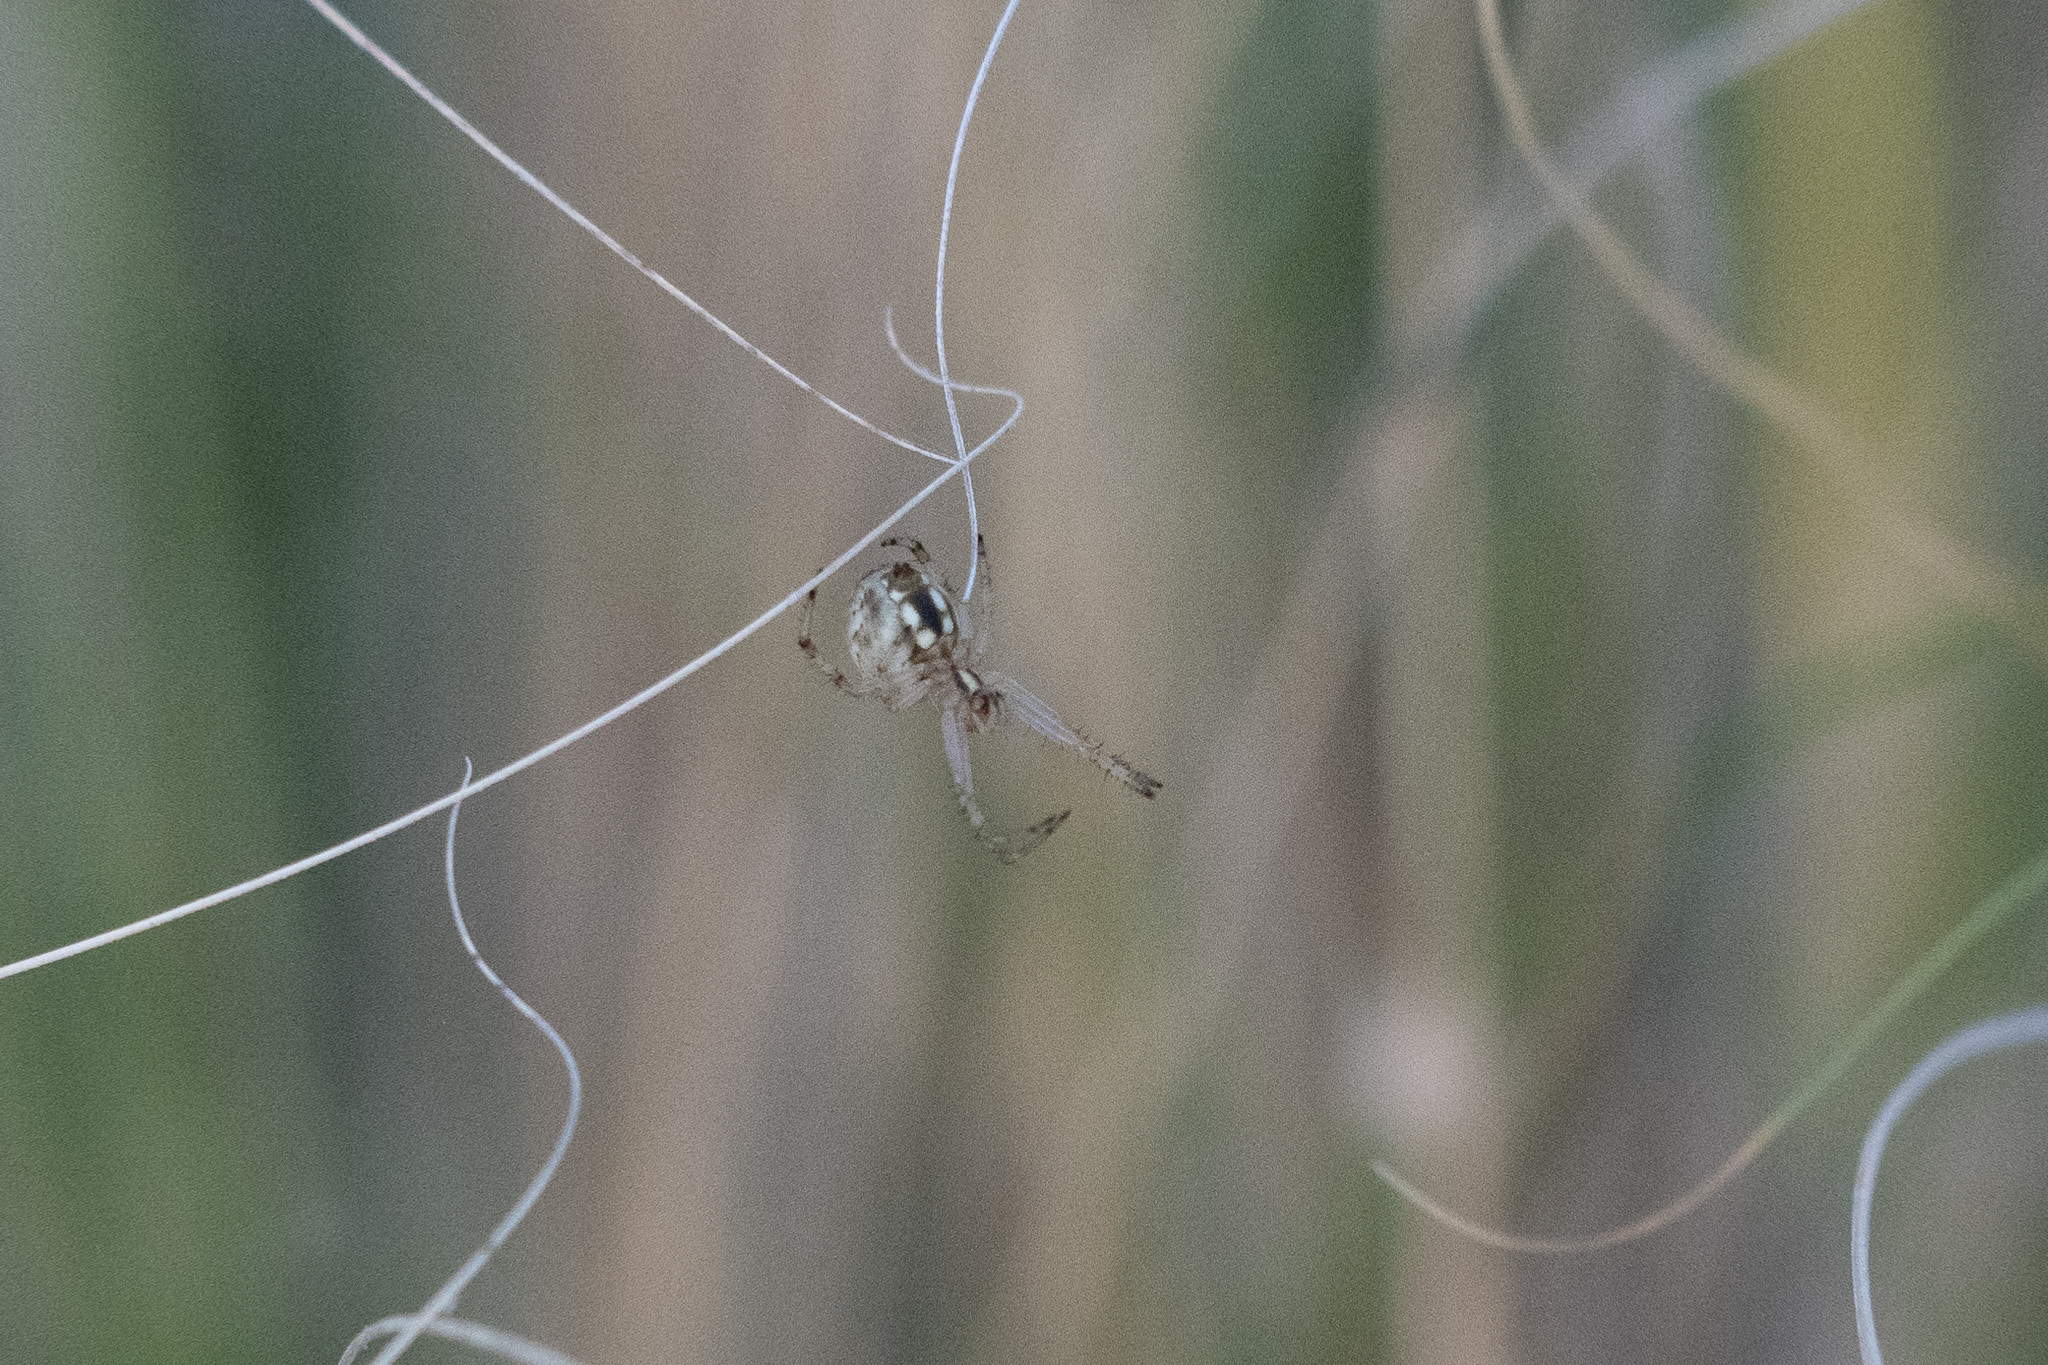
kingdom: Animalia
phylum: Arthropoda
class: Arachnida
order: Araneae
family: Araneidae
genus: Neoscona
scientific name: Neoscona theisi
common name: Spider
